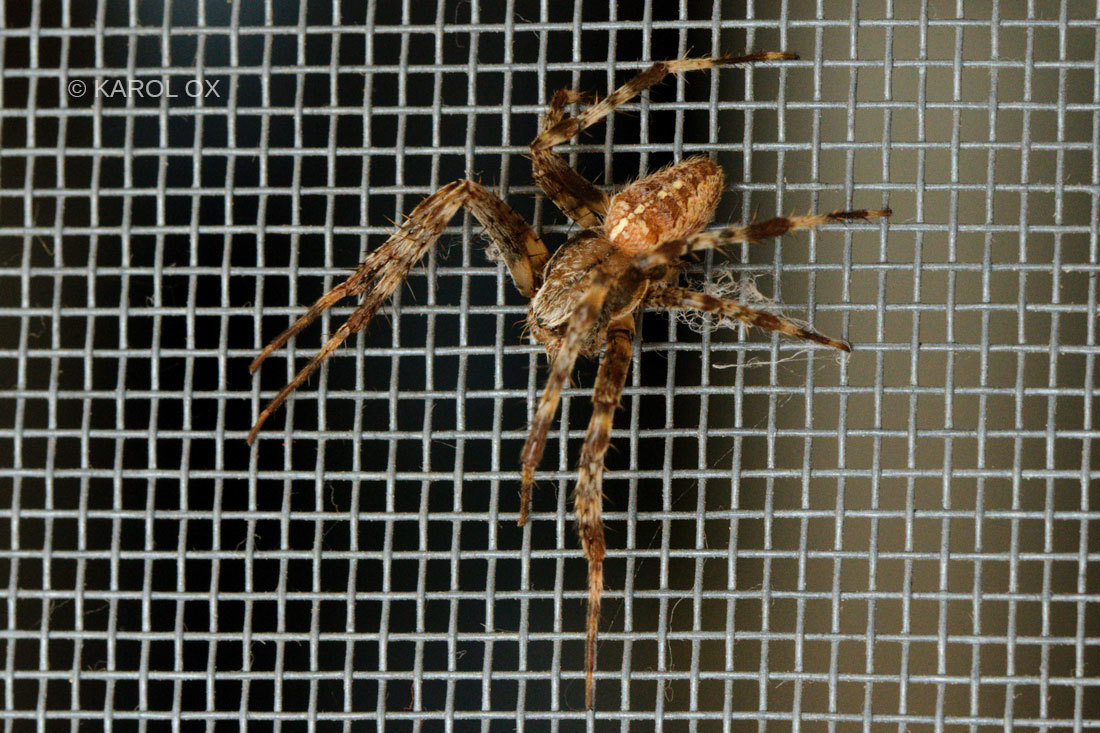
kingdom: Animalia
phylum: Arthropoda
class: Arachnida
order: Araneae
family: Araneidae
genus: Araneus
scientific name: Araneus diadematus
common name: Cross orbweaver
